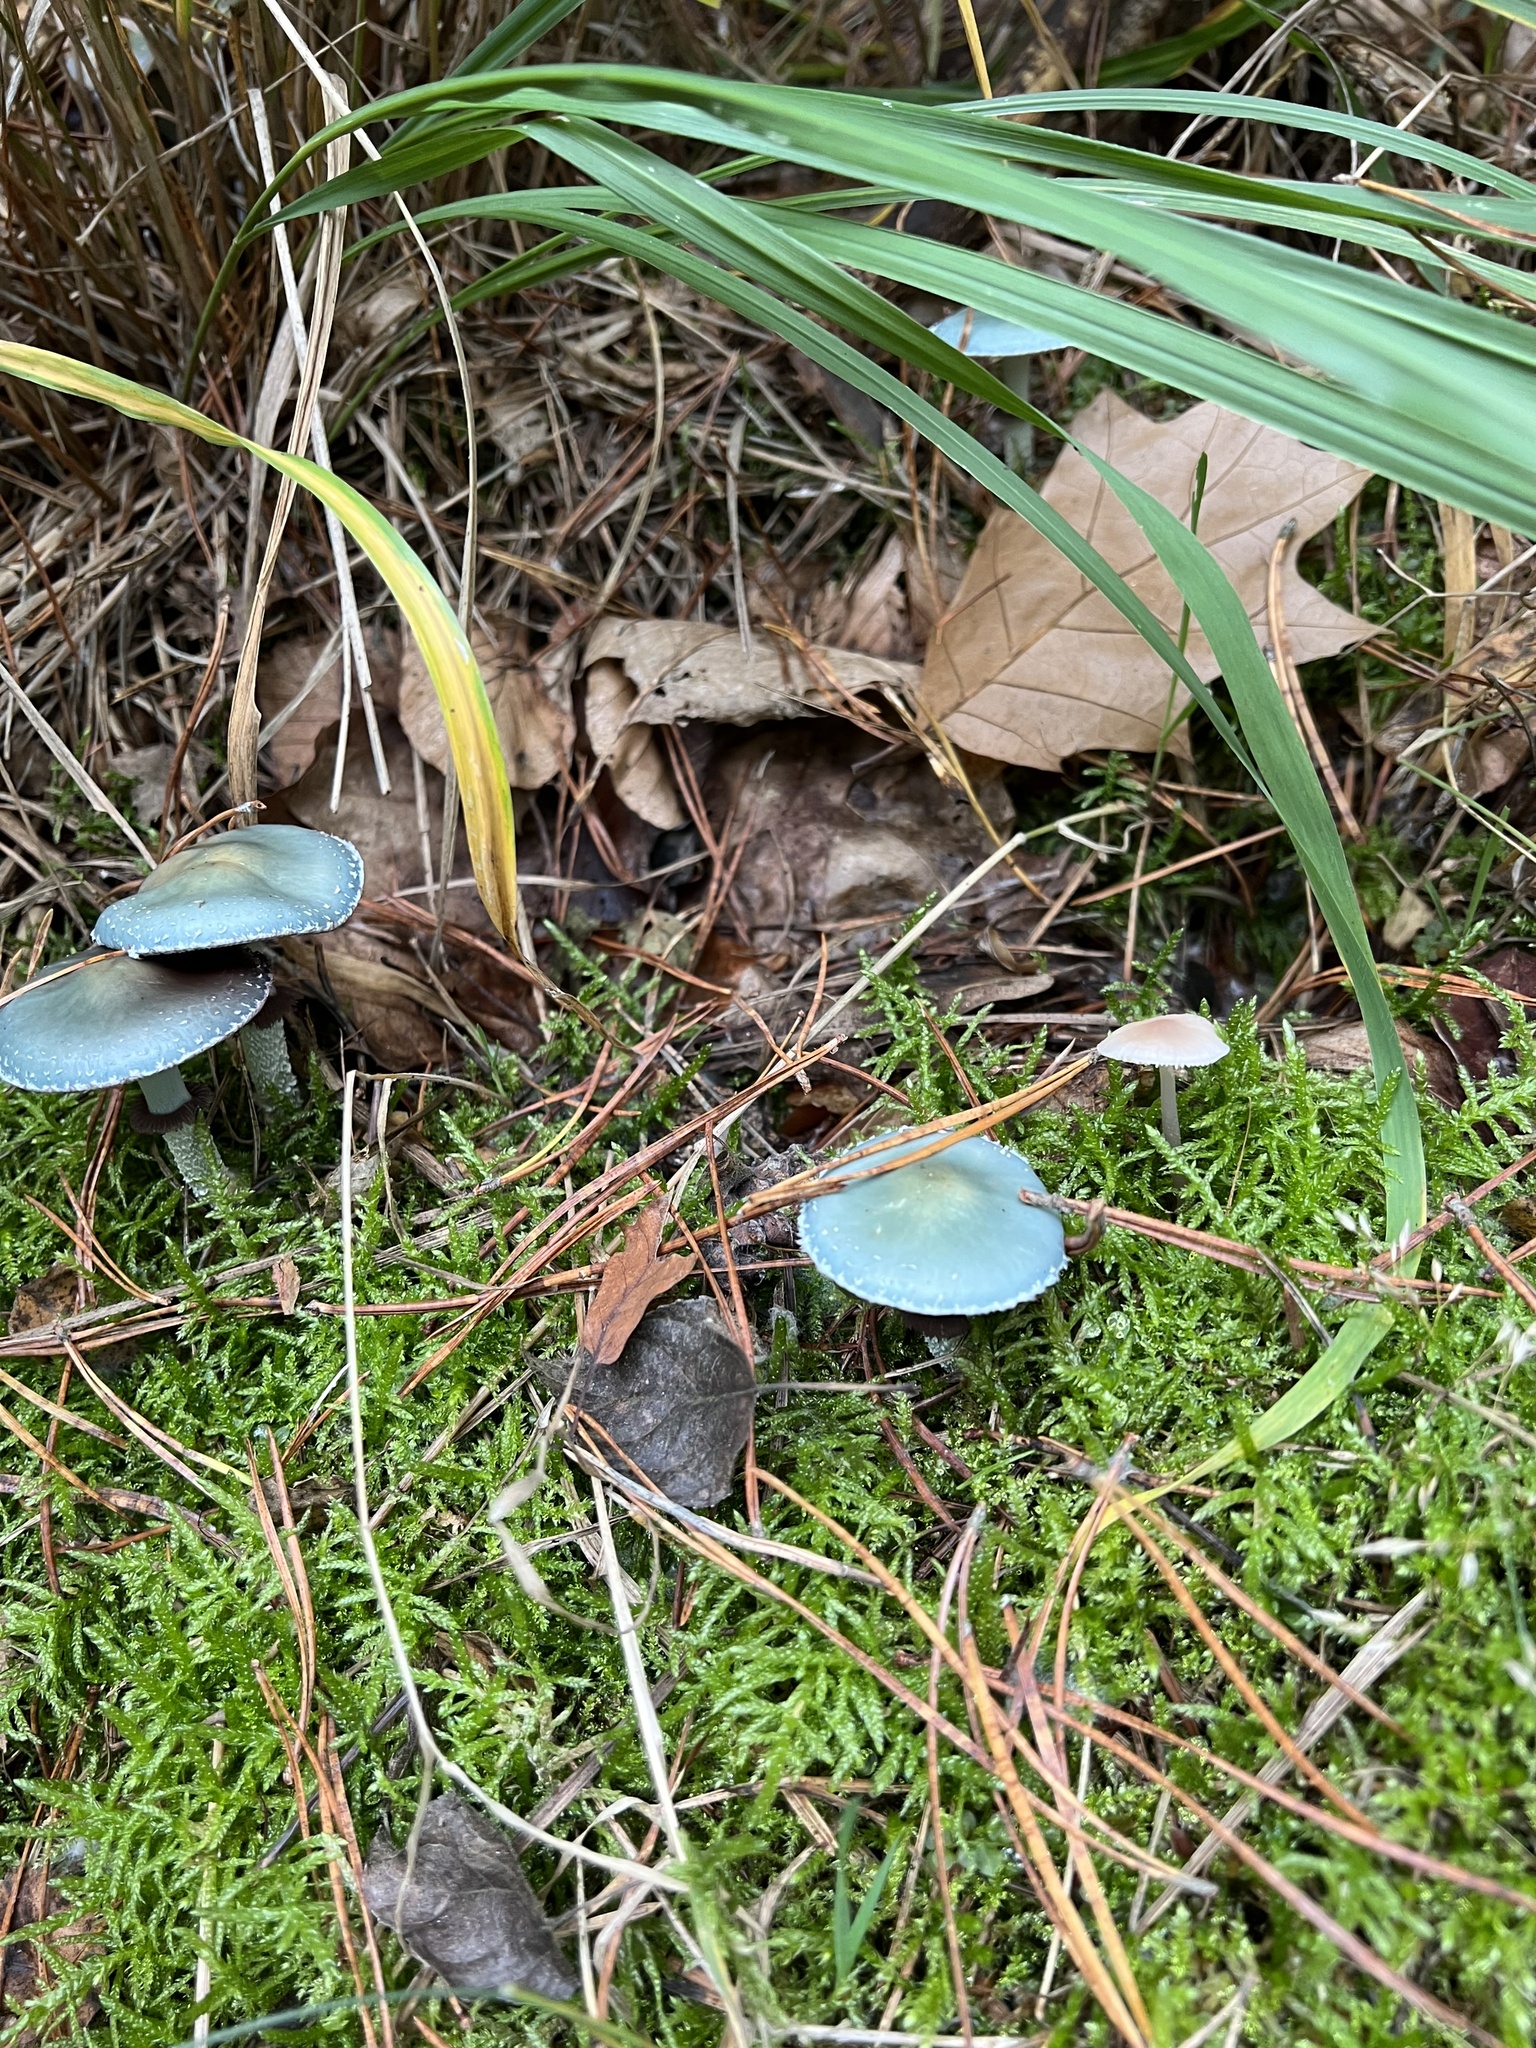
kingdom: Fungi
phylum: Basidiomycota
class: Agaricomycetes
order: Agaricales
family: Strophariaceae
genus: Stropharia
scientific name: Stropharia aeruginosa
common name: Verdigris roundhead
